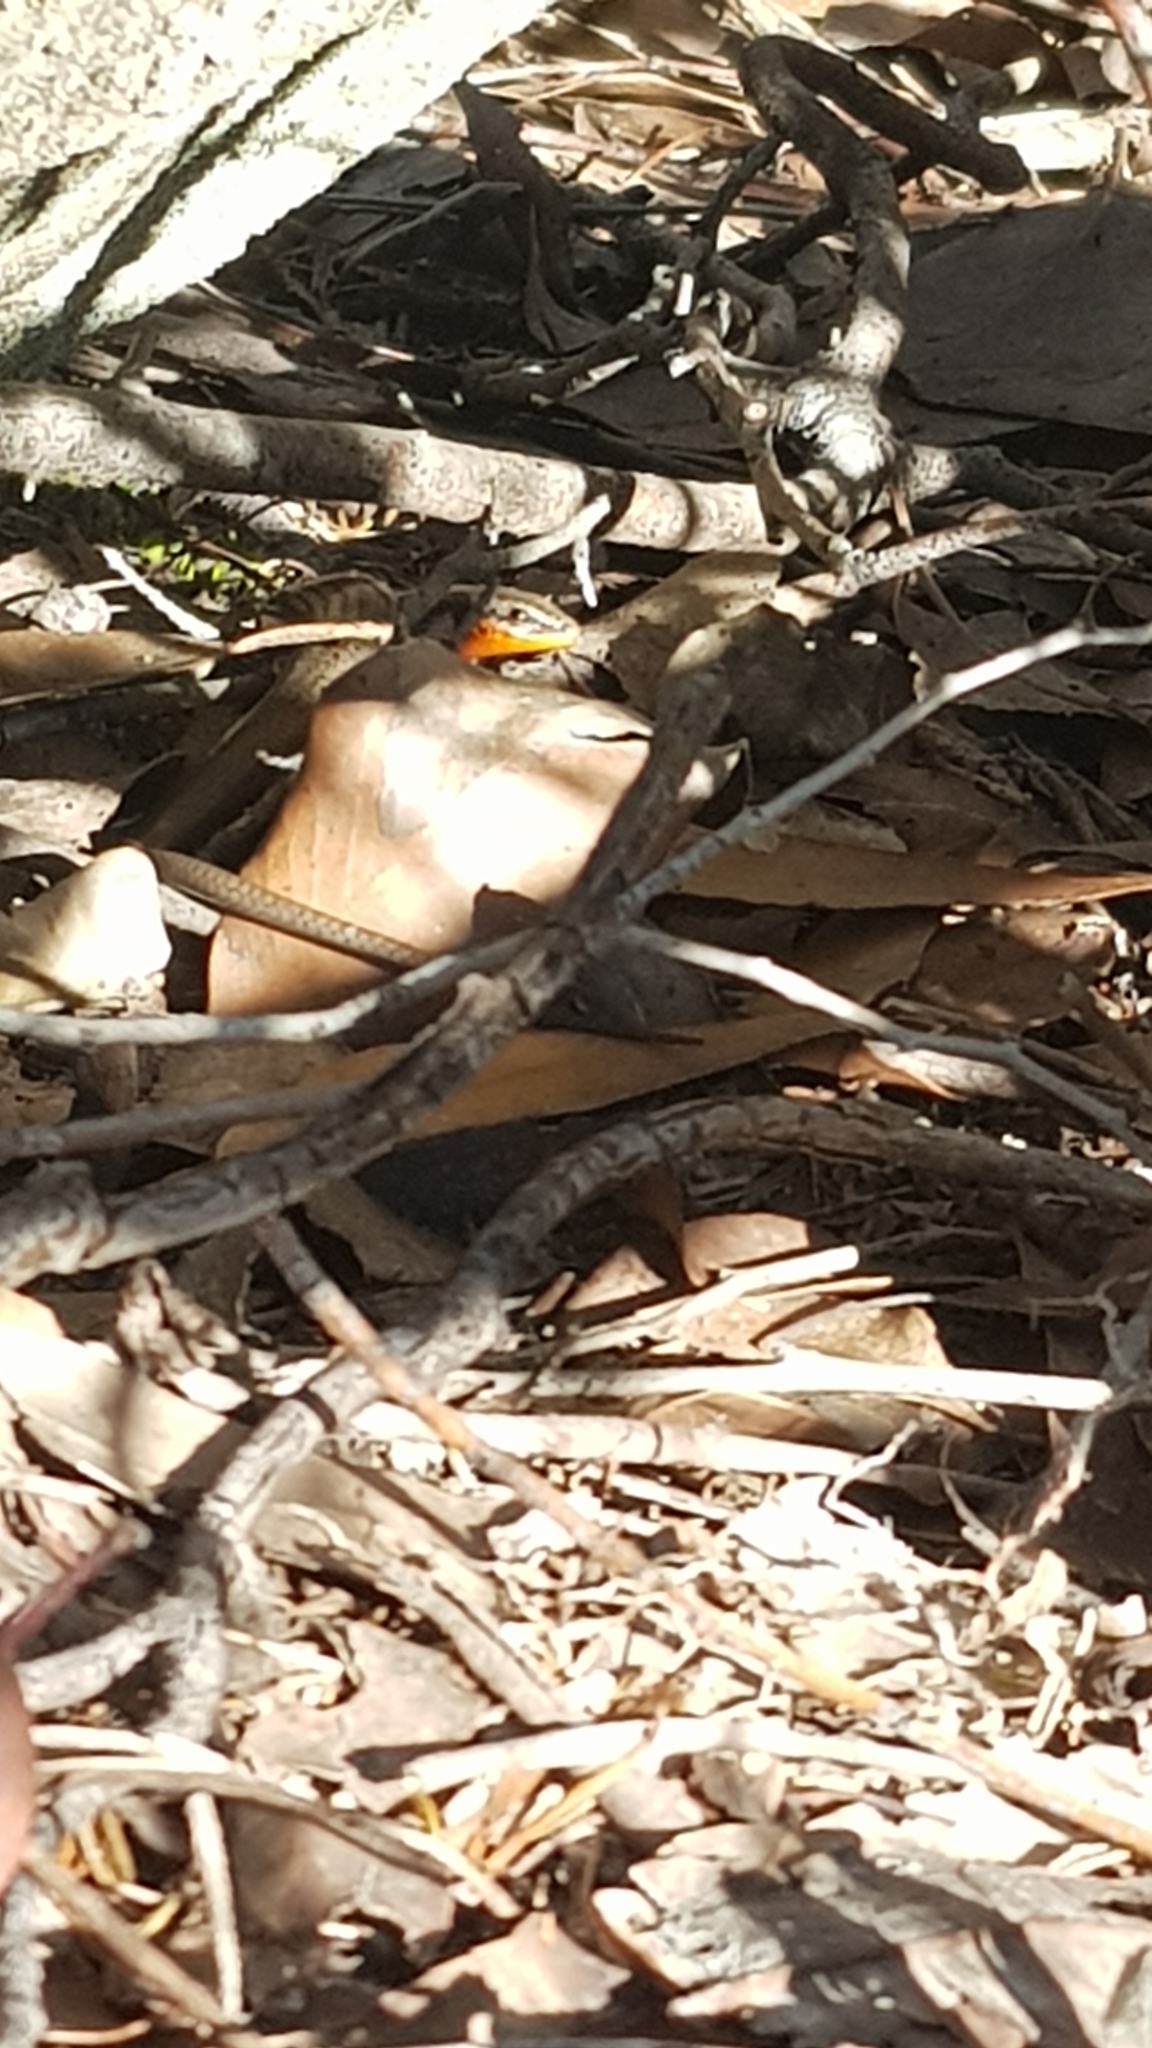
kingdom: Animalia
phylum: Chordata
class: Squamata
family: Scincidae
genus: Acritoscincus
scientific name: Acritoscincus platynotus
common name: Red-throated cool-skink
